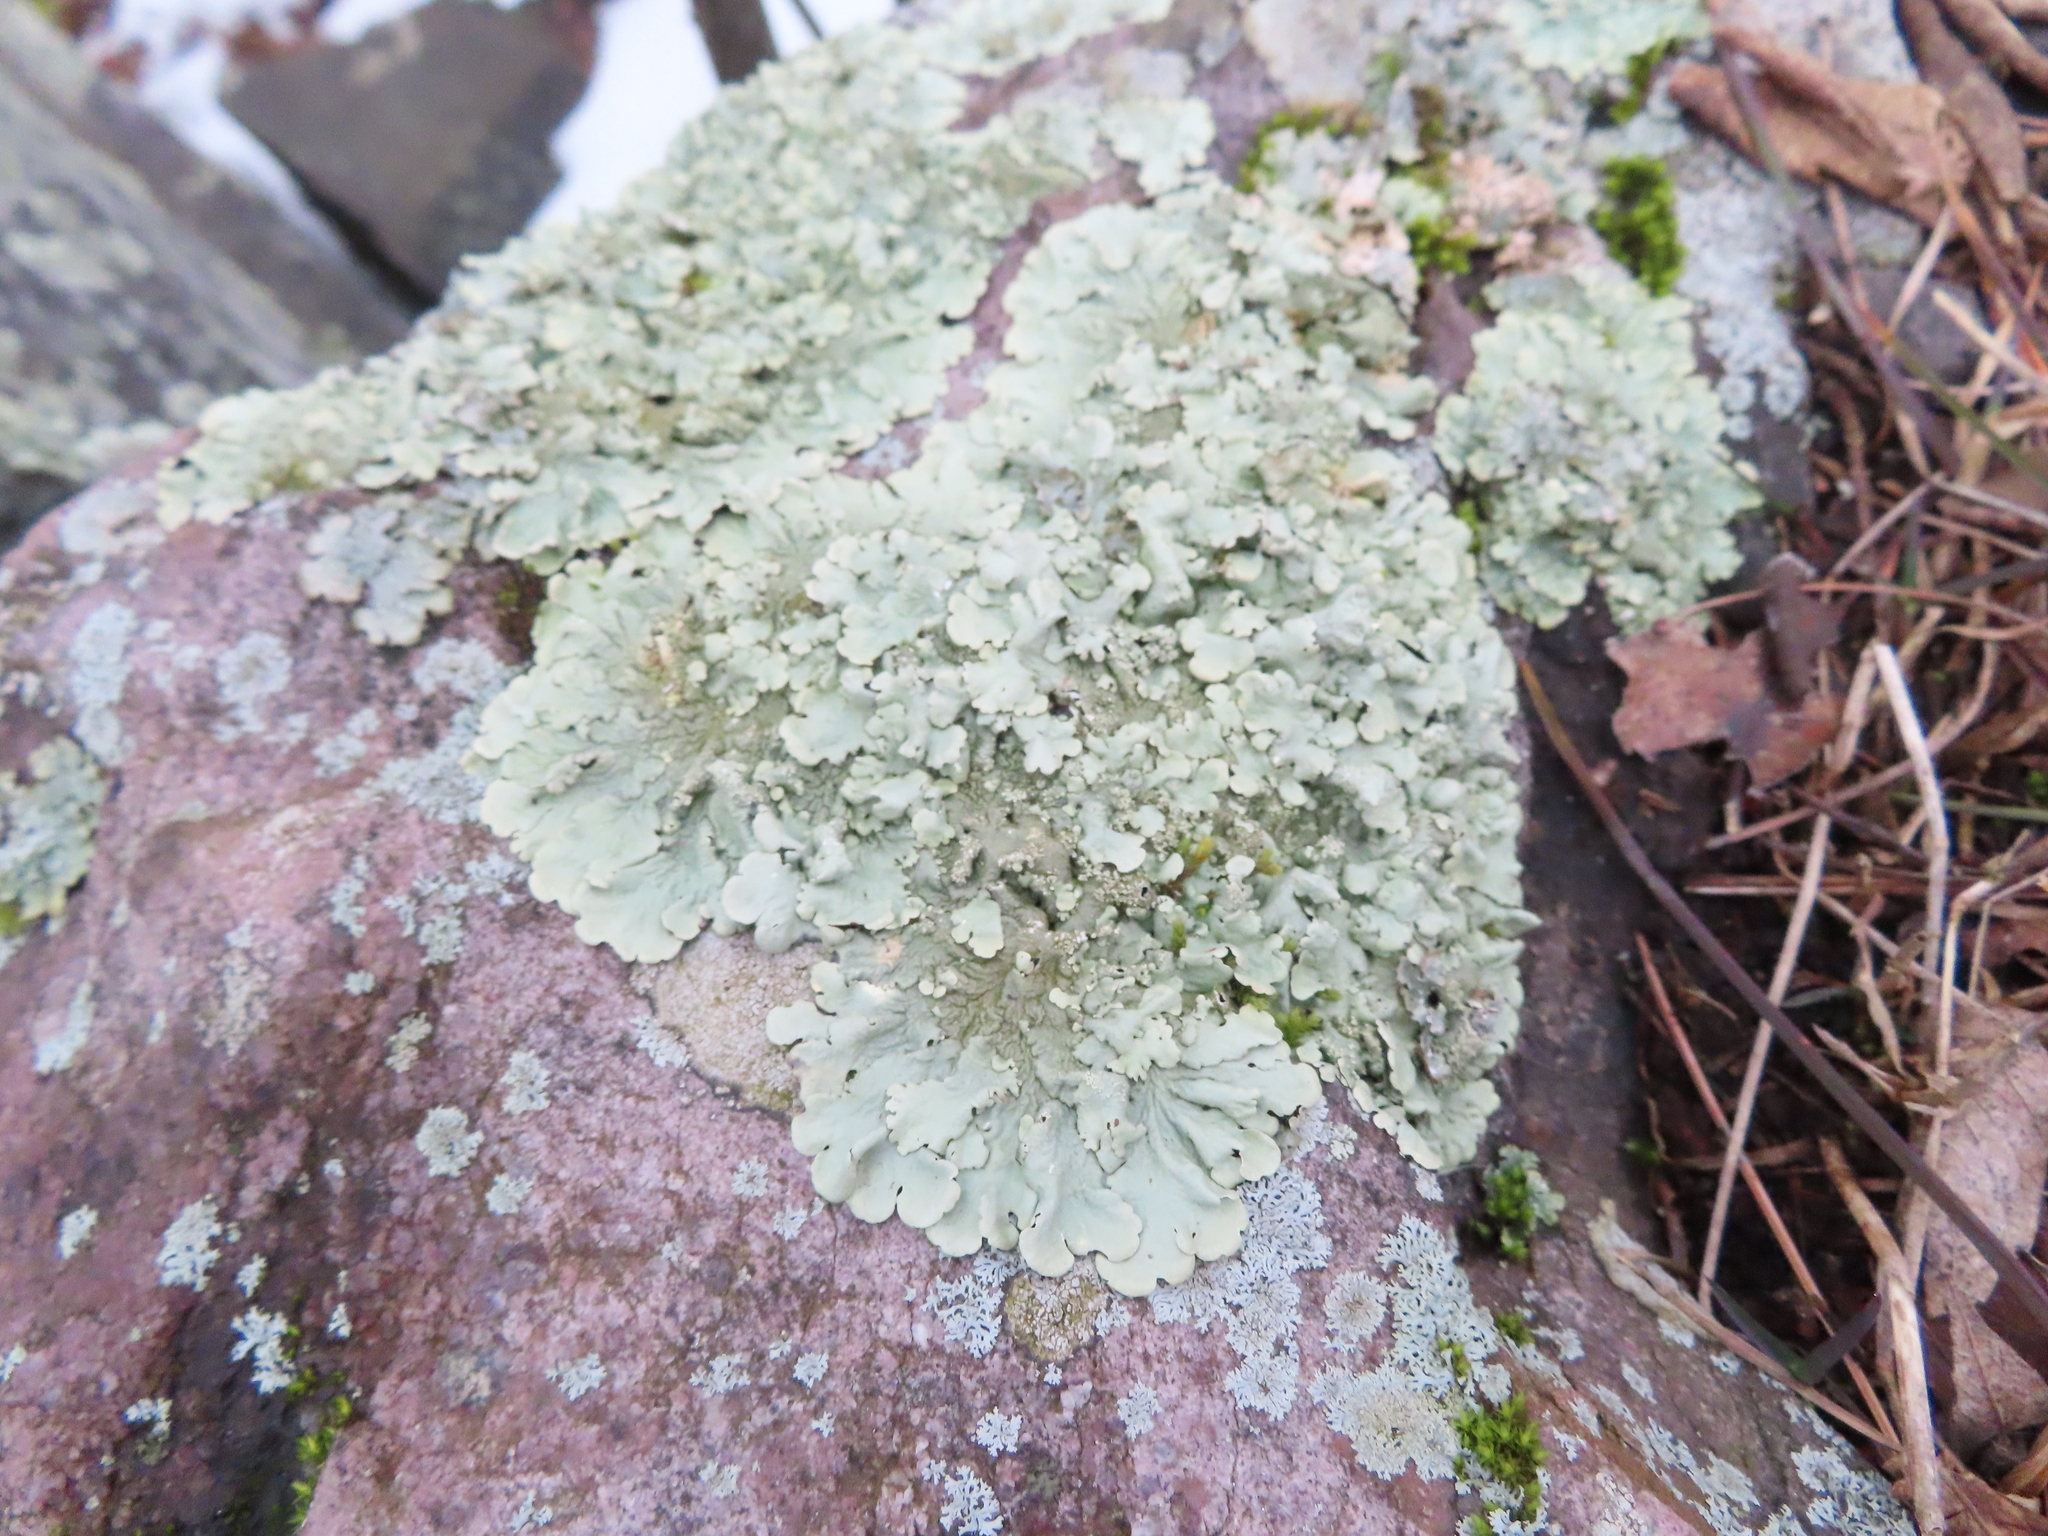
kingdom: Fungi
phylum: Ascomycota
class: Lecanoromycetes
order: Lecanorales
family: Parmeliaceae
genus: Flavoparmelia
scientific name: Flavoparmelia baltimorensis
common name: Rock greenshield
